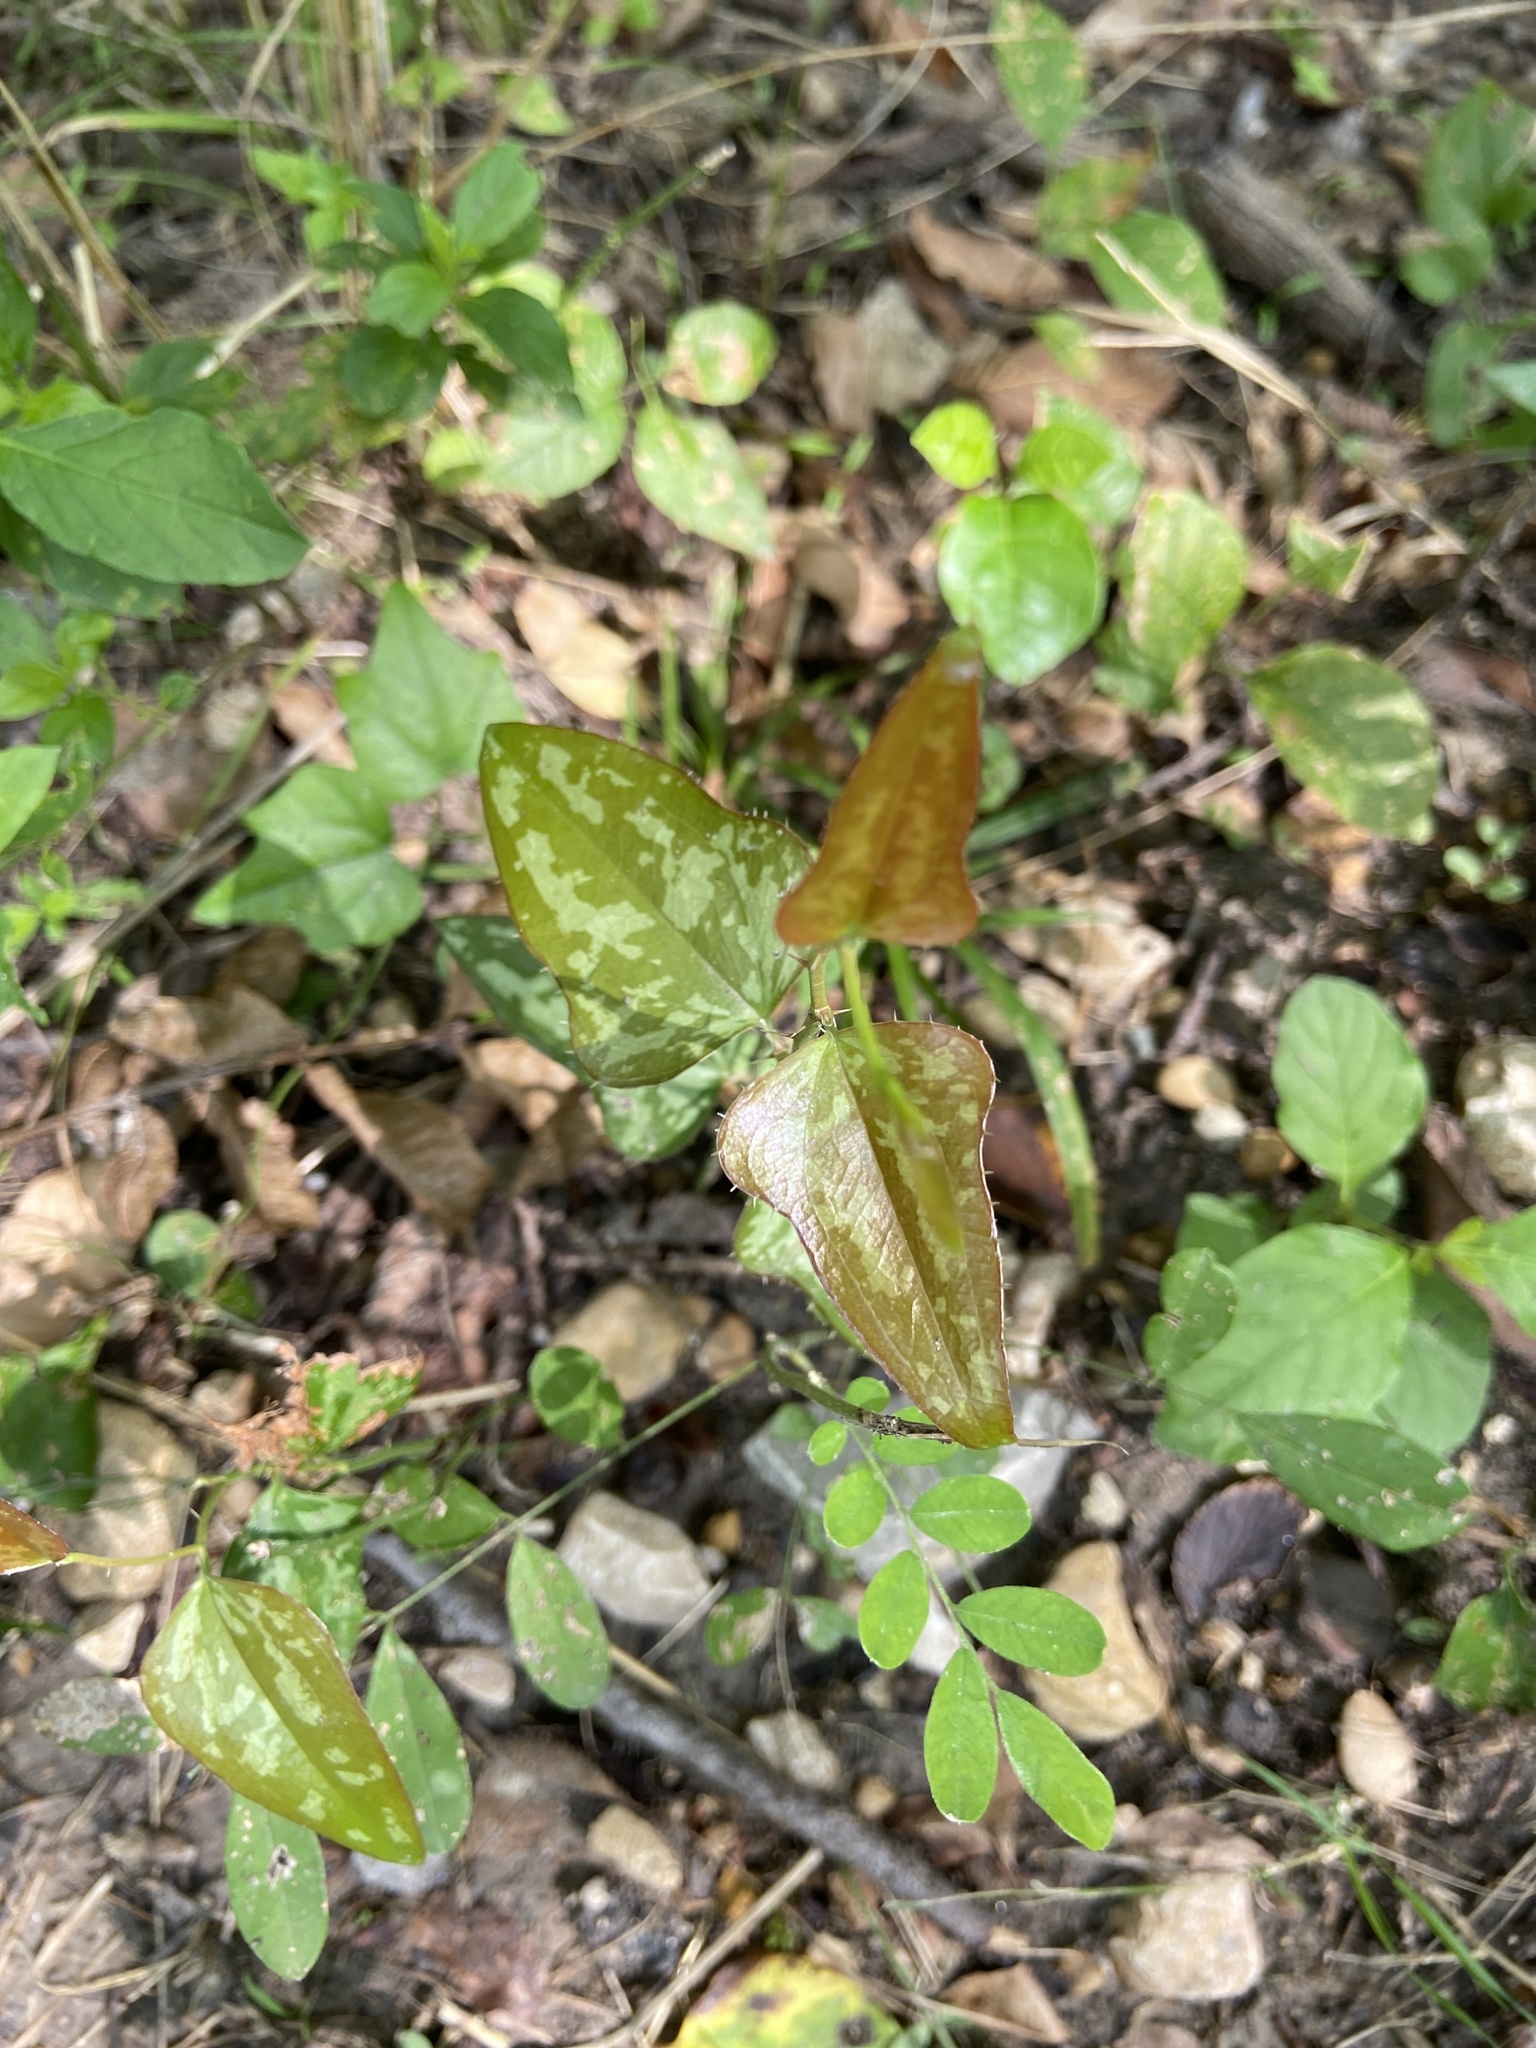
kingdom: Plantae
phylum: Tracheophyta
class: Liliopsida
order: Liliales
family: Smilacaceae
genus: Smilax
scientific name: Smilax bona-nox
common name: Catbrier
